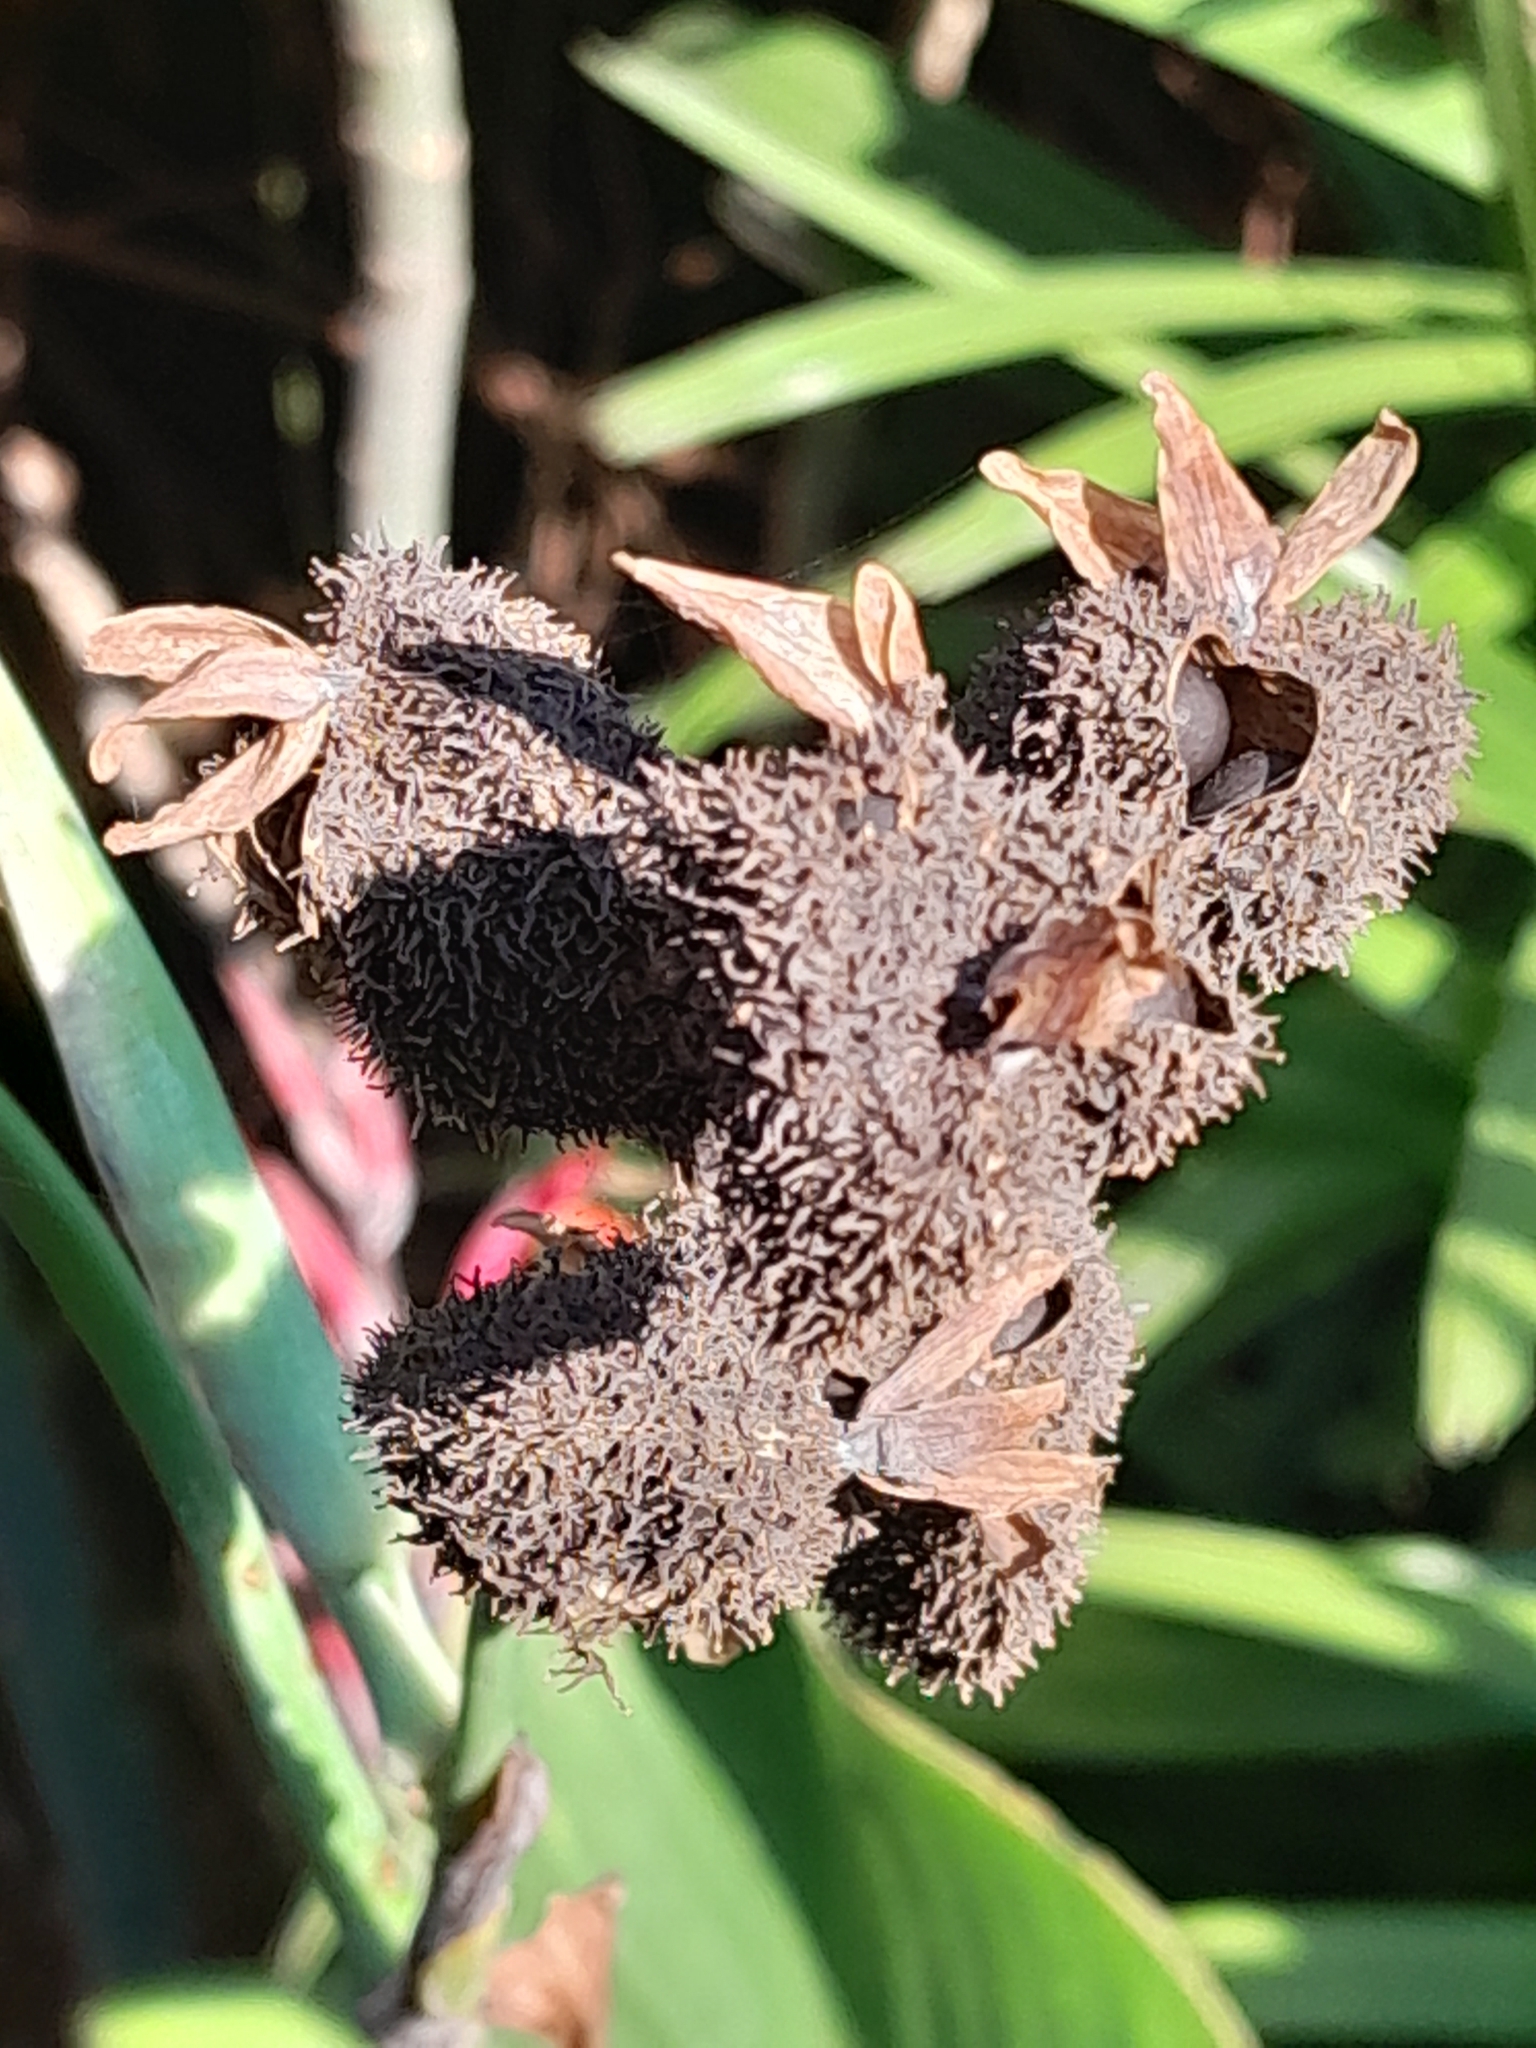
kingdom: Plantae
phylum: Tracheophyta
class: Liliopsida
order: Zingiberales
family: Cannaceae
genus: Canna
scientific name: Canna indica
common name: Indian shot
